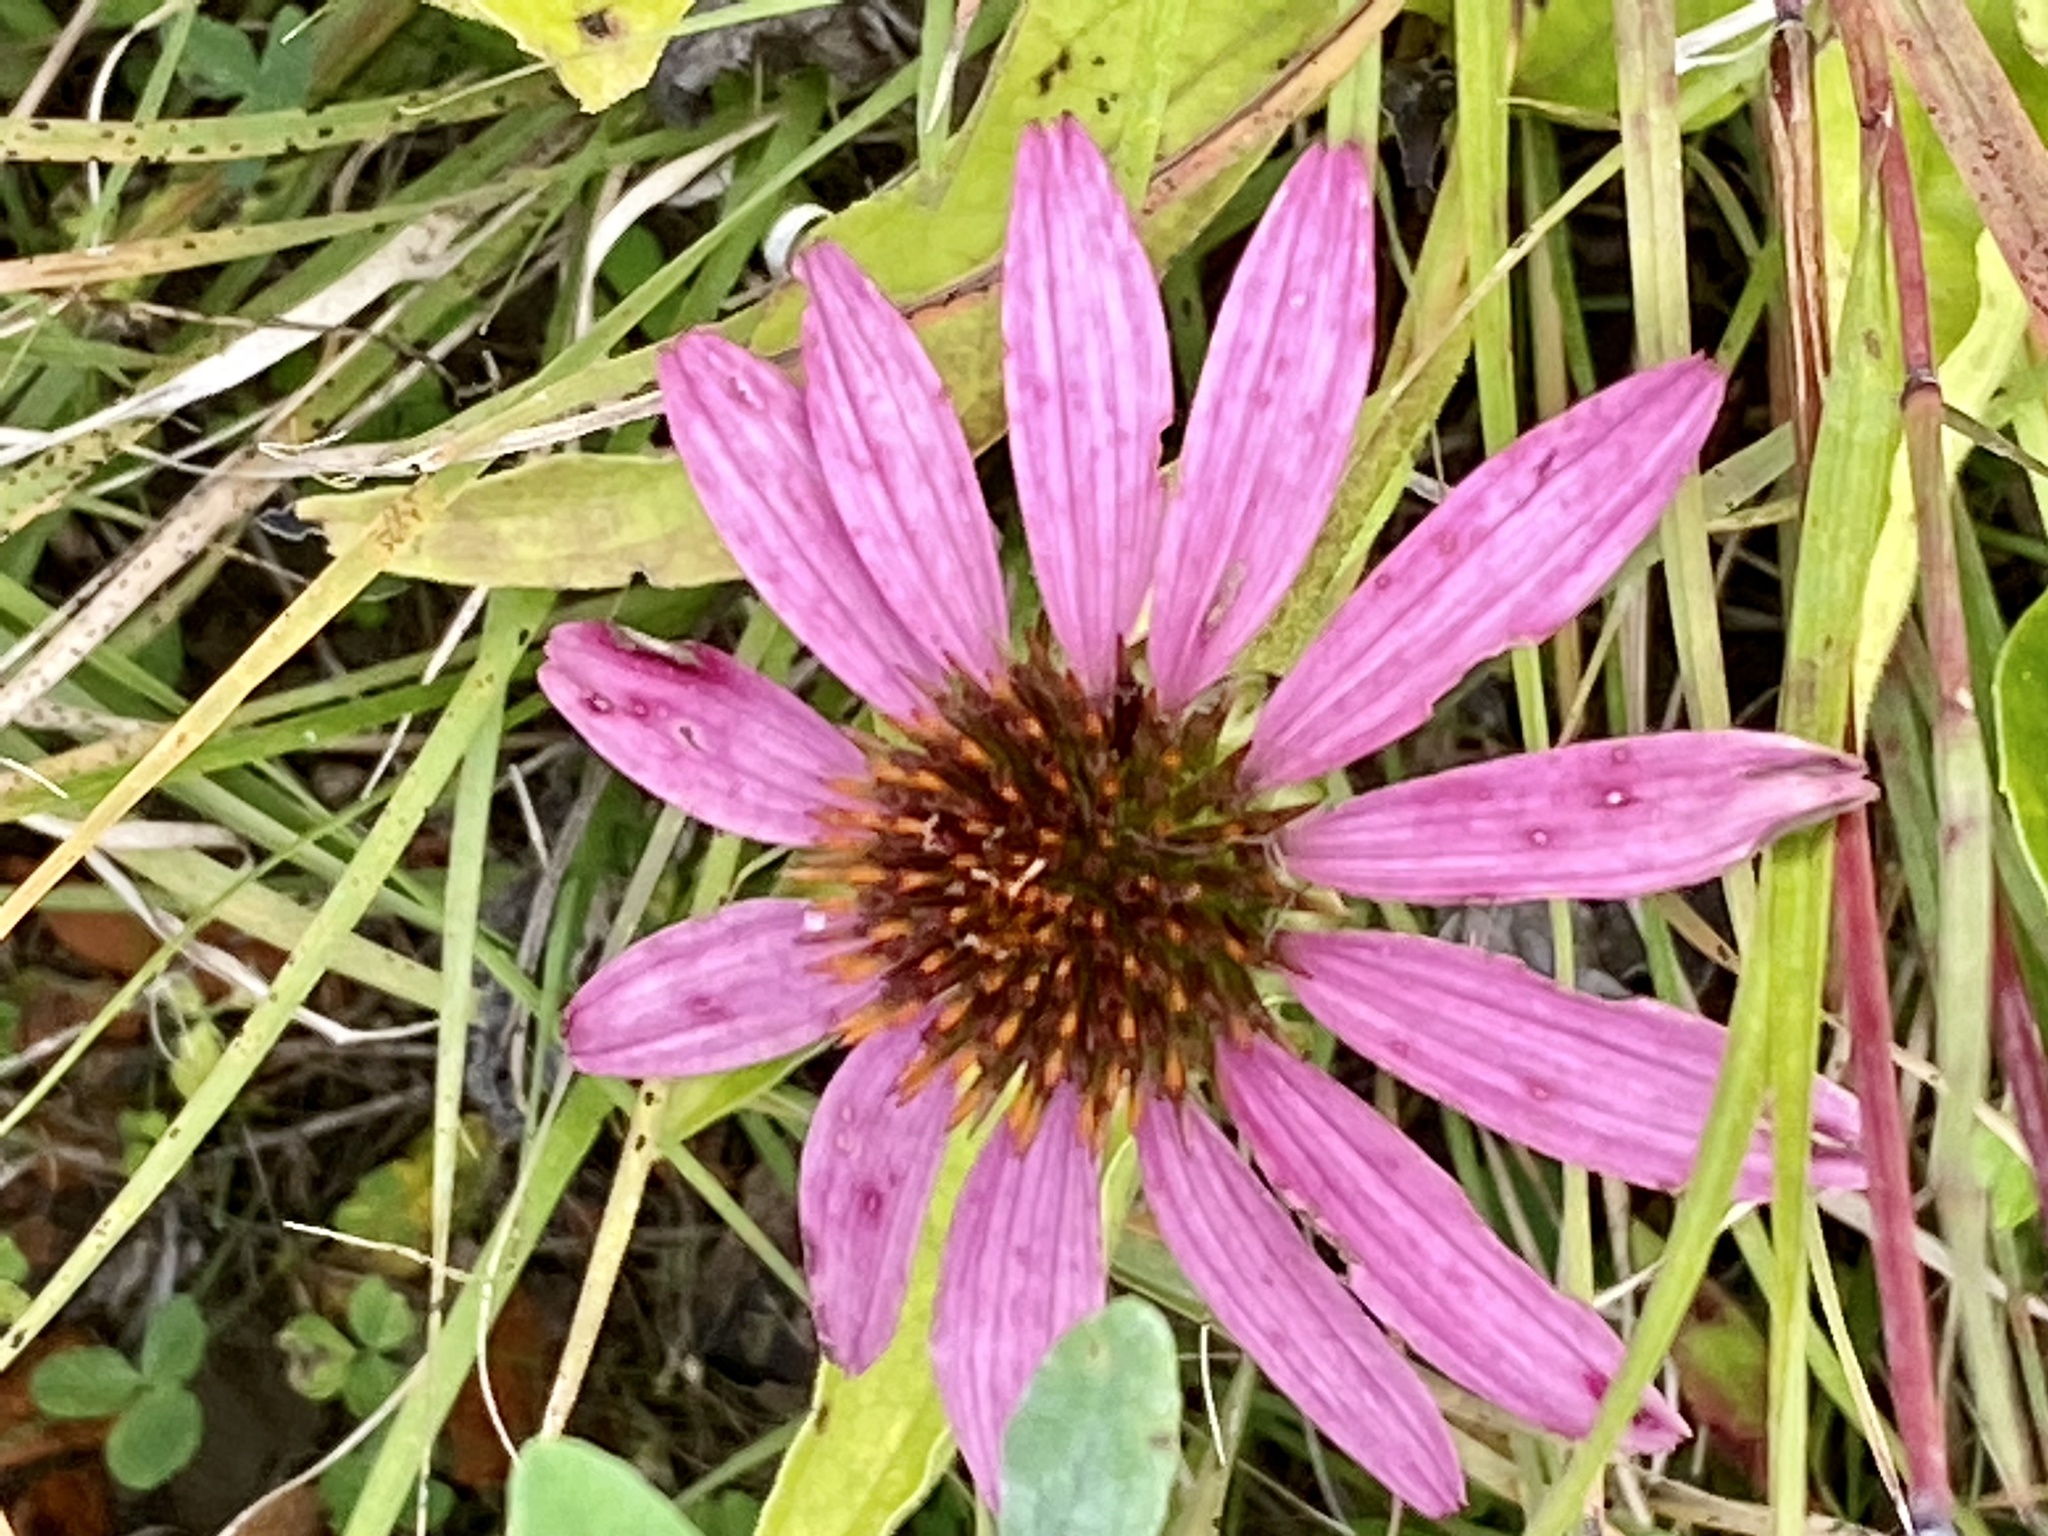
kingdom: Plantae
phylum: Tracheophyta
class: Magnoliopsida
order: Asterales
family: Asteraceae
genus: Echinacea
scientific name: Echinacea purpurea
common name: Broad-leaved purple coneflower
